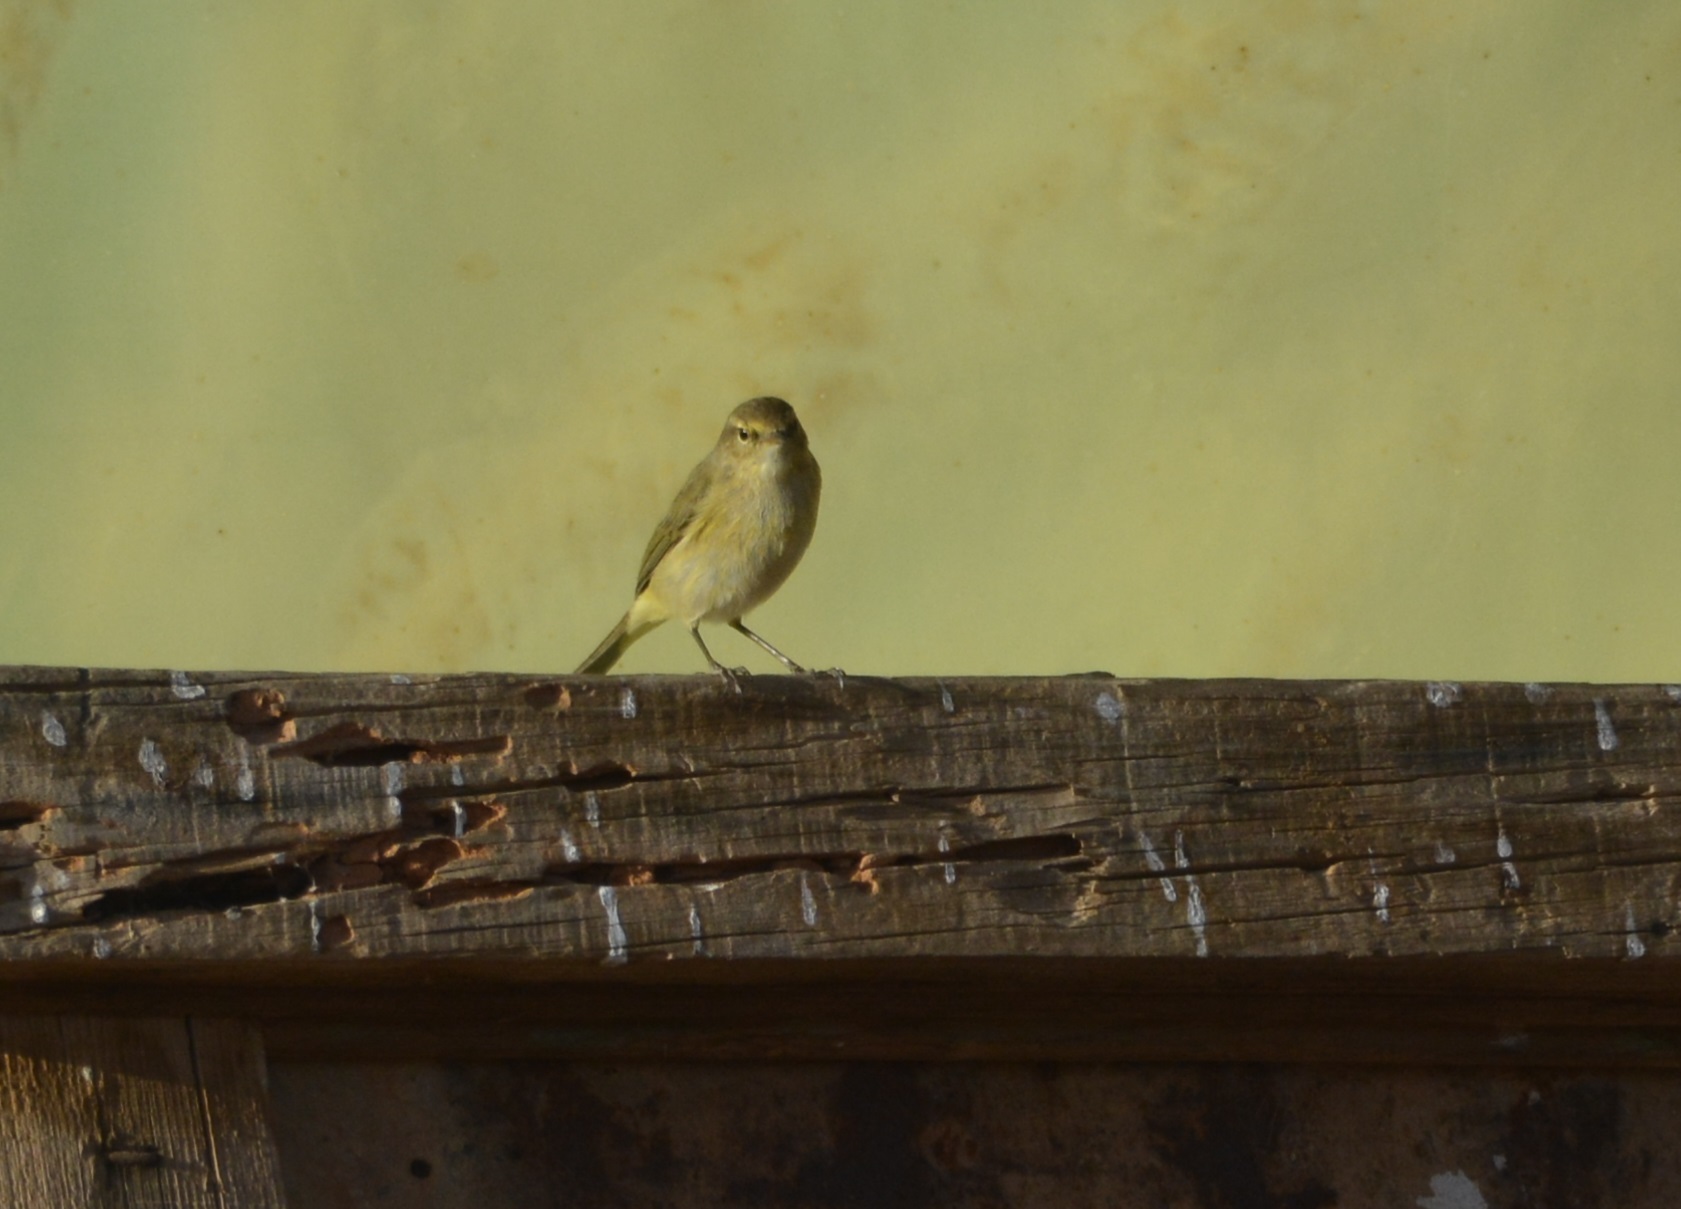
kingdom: Animalia
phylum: Chordata
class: Aves
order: Passeriformes
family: Phylloscopidae
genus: Phylloscopus
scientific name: Phylloscopus collybita
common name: Common chiffchaff
